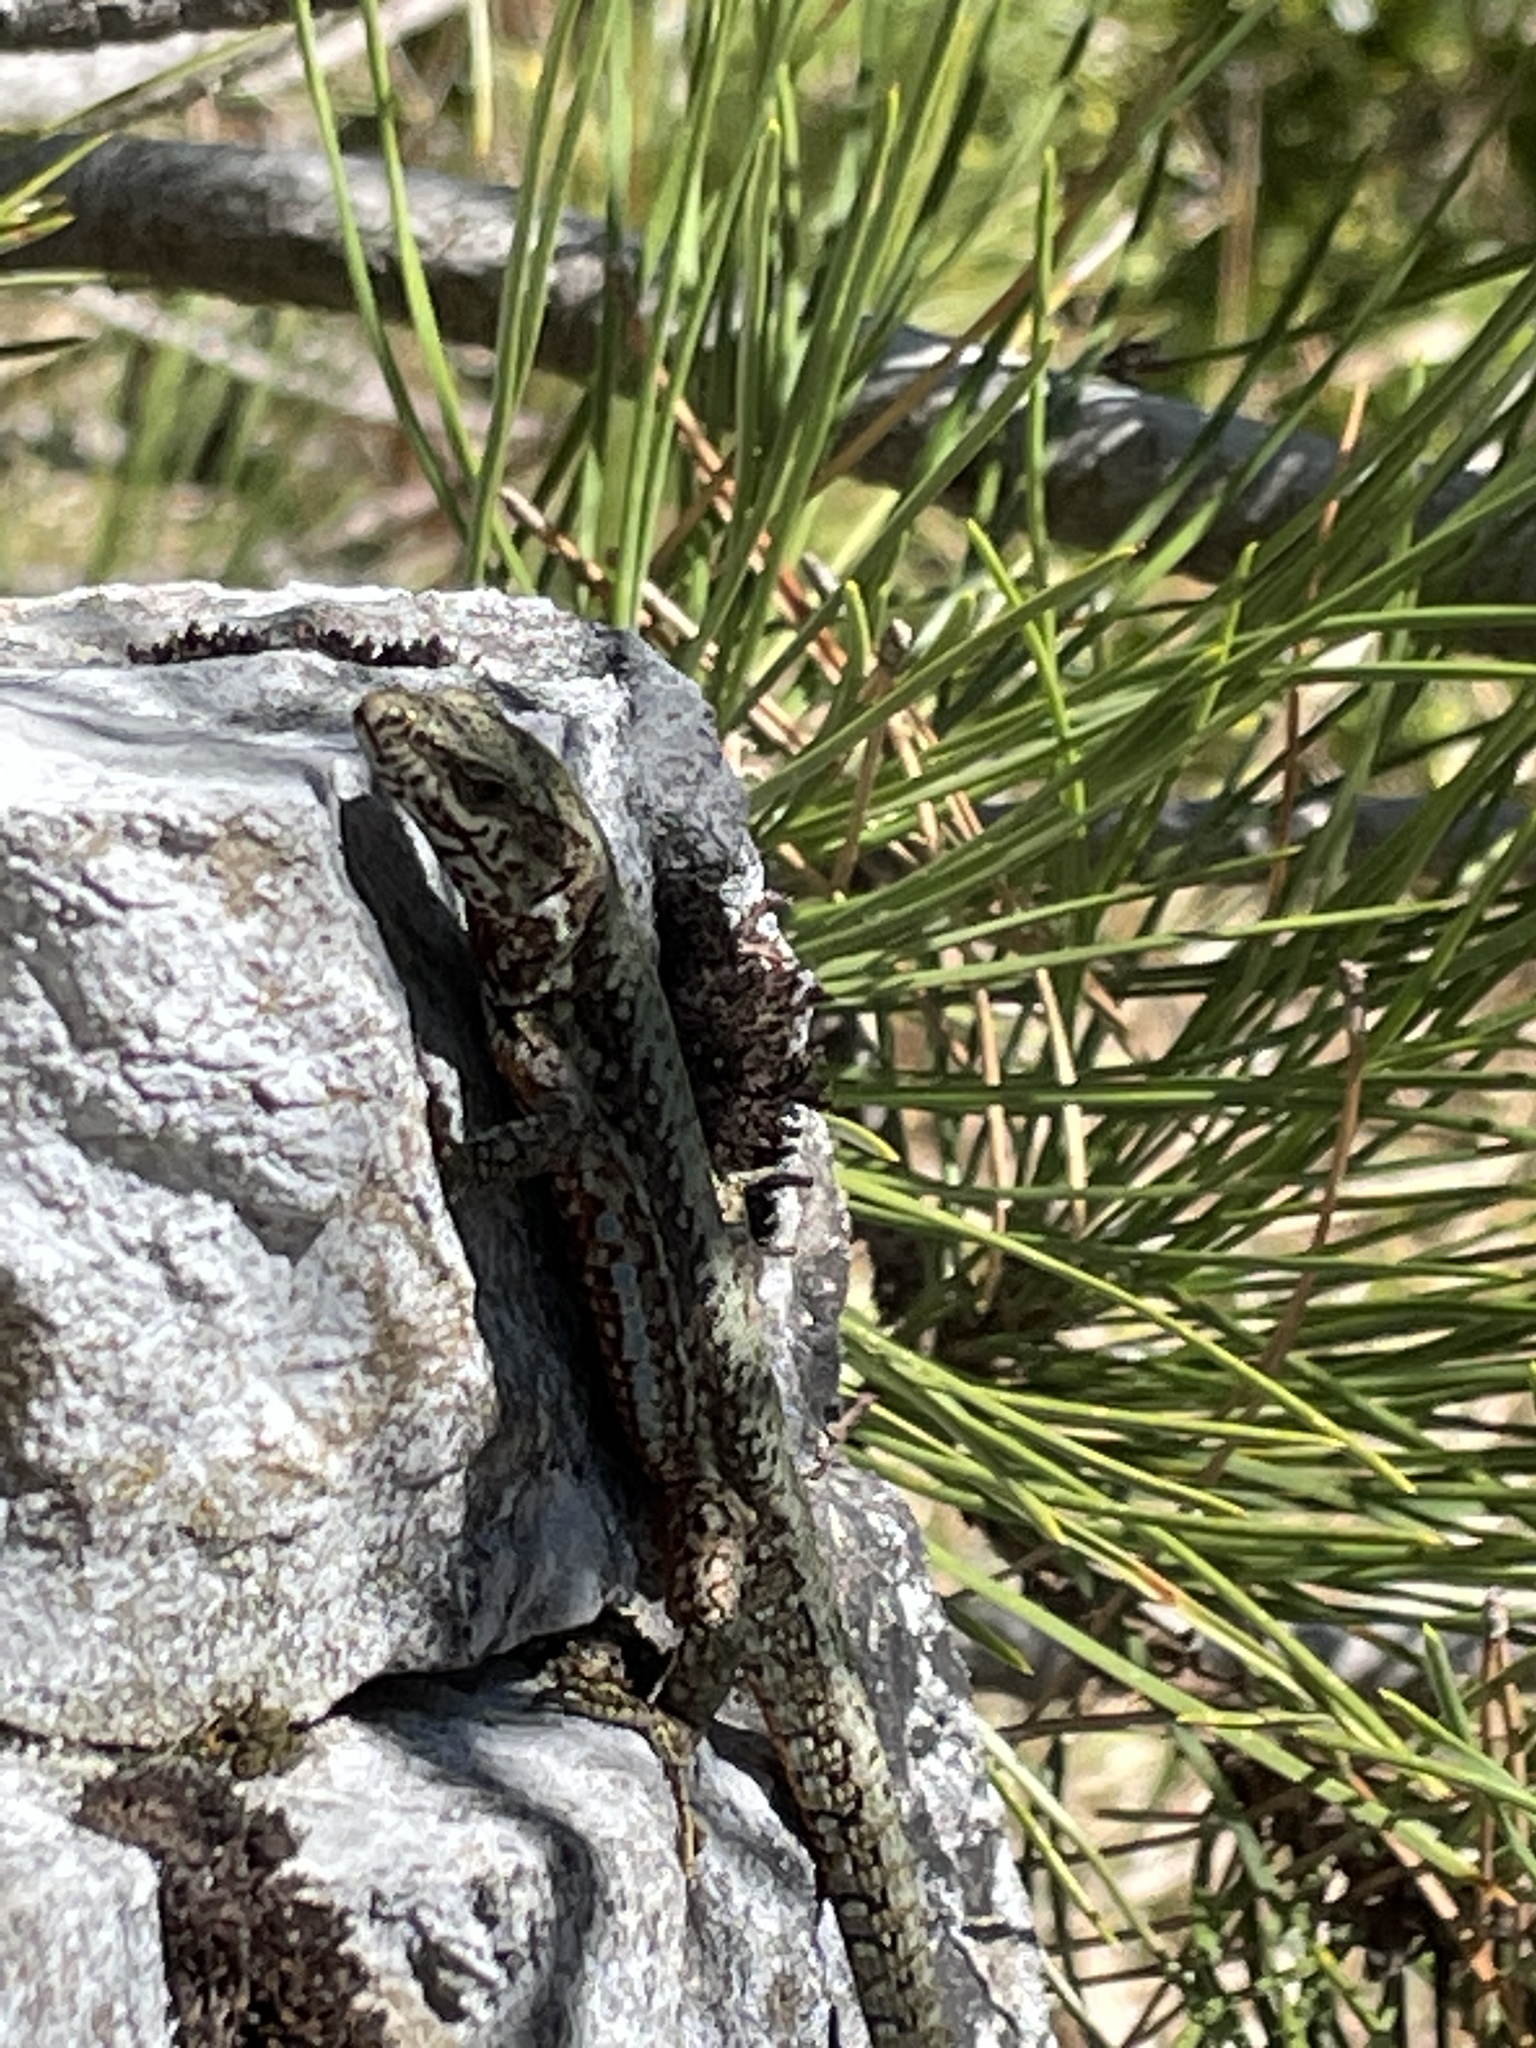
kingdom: Animalia
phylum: Chordata
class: Squamata
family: Lacertidae
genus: Podarcis
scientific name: Podarcis muralis
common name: Common wall lizard
